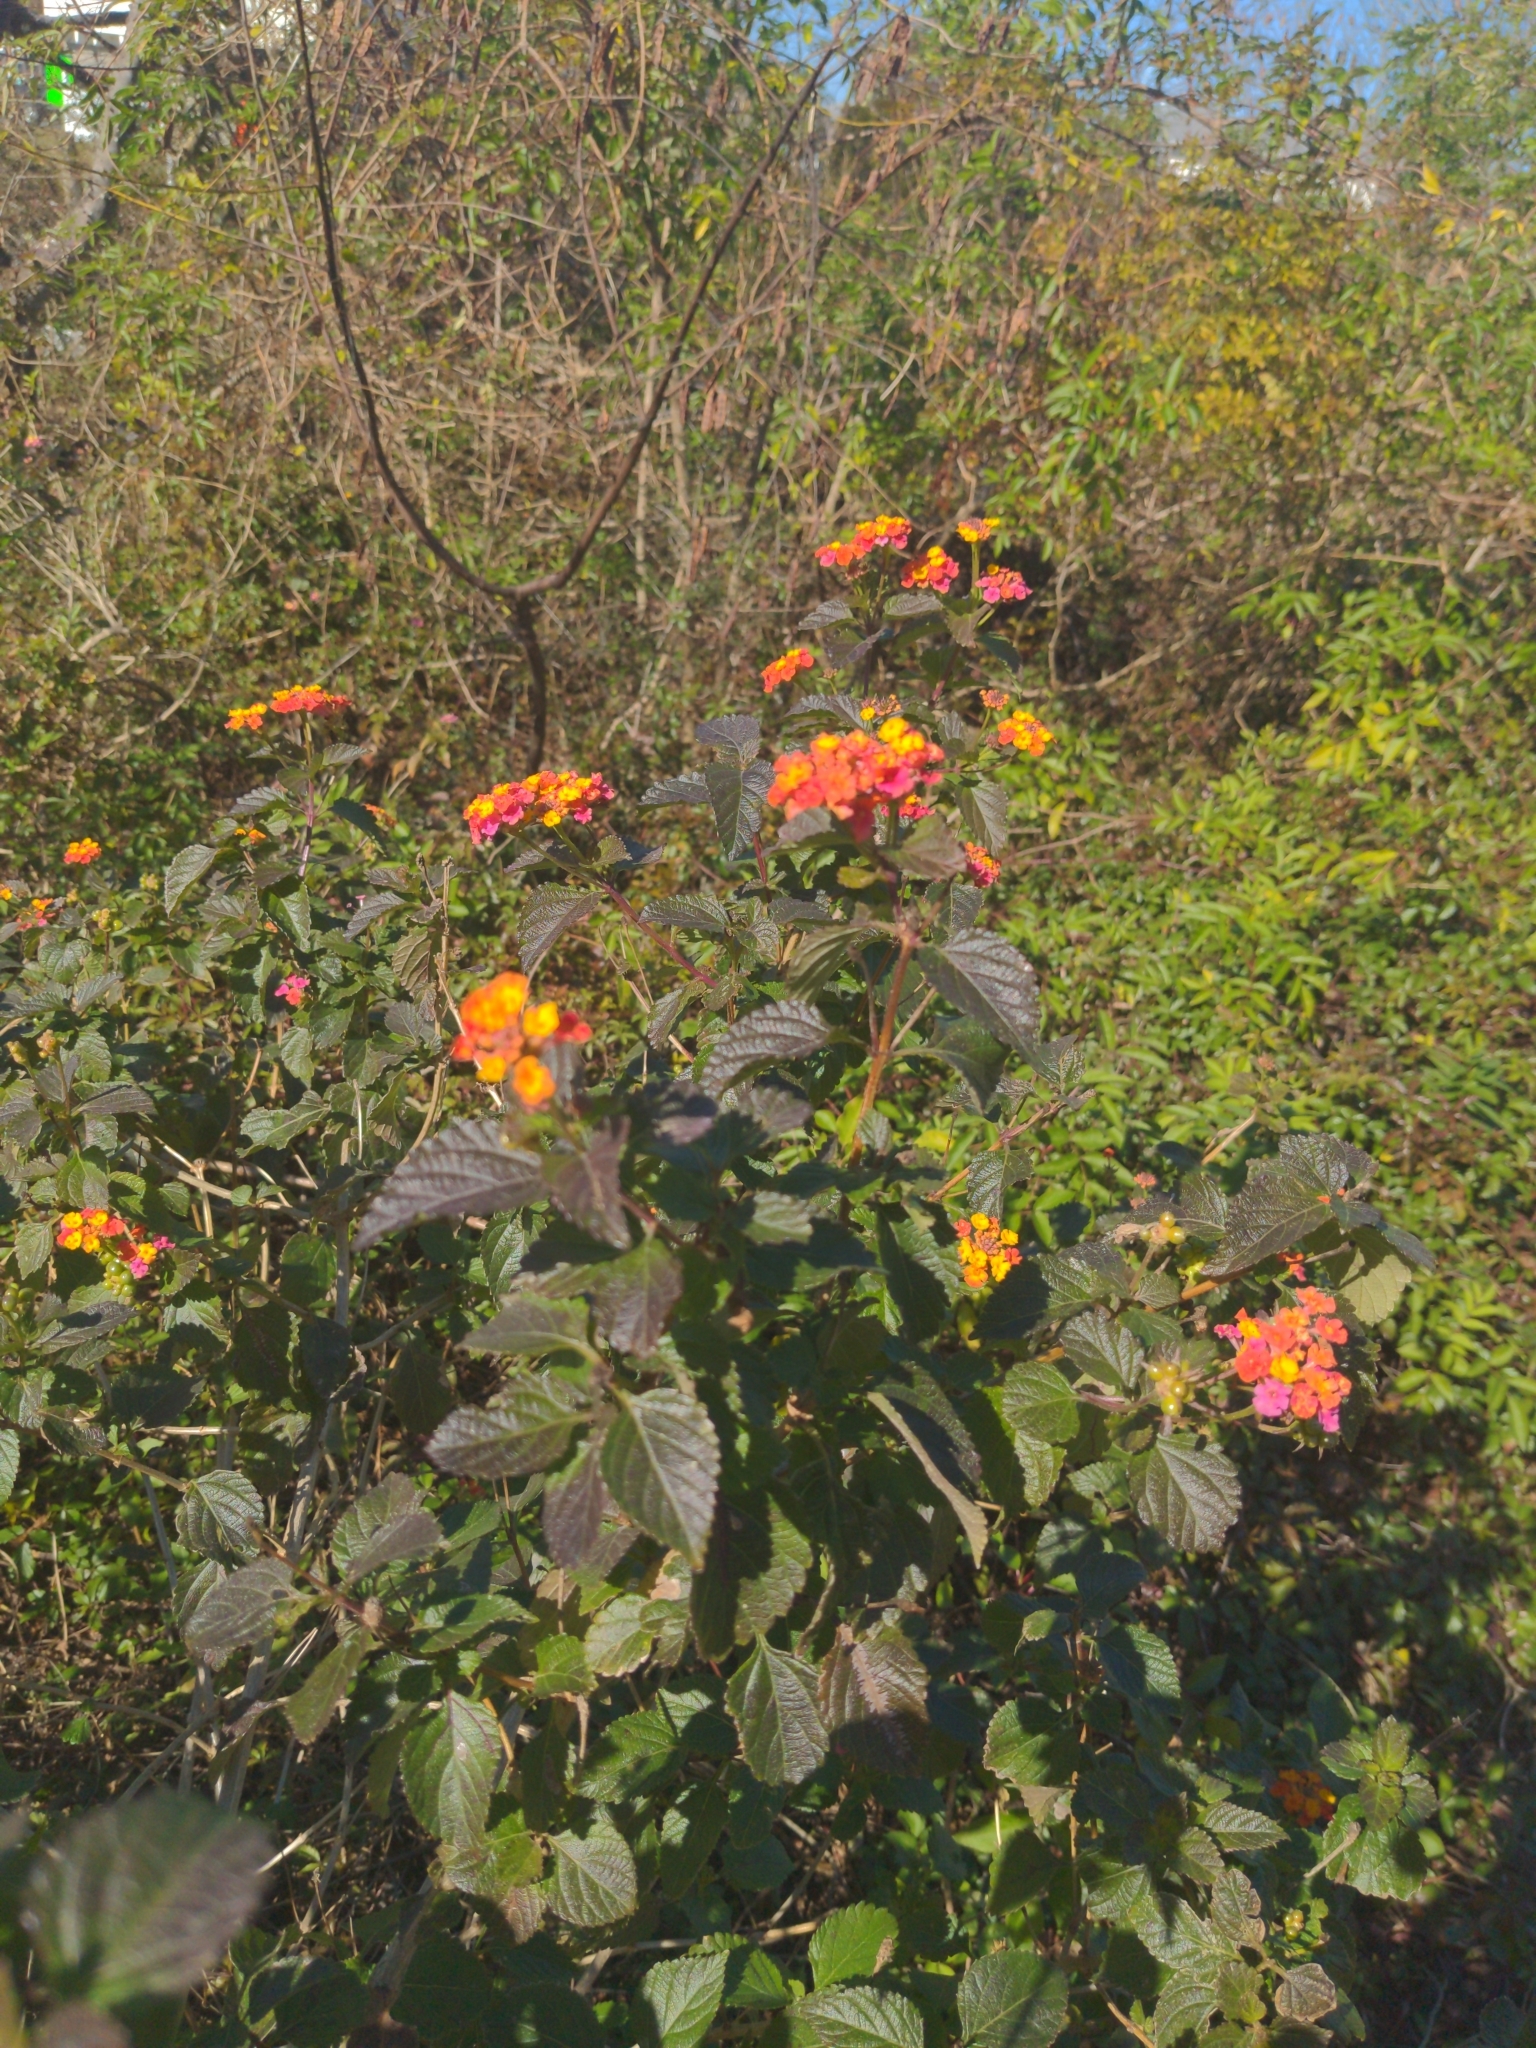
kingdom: Plantae
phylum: Tracheophyta
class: Magnoliopsida
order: Lamiales
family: Verbenaceae
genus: Lantana
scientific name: Lantana camara
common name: Lantana
